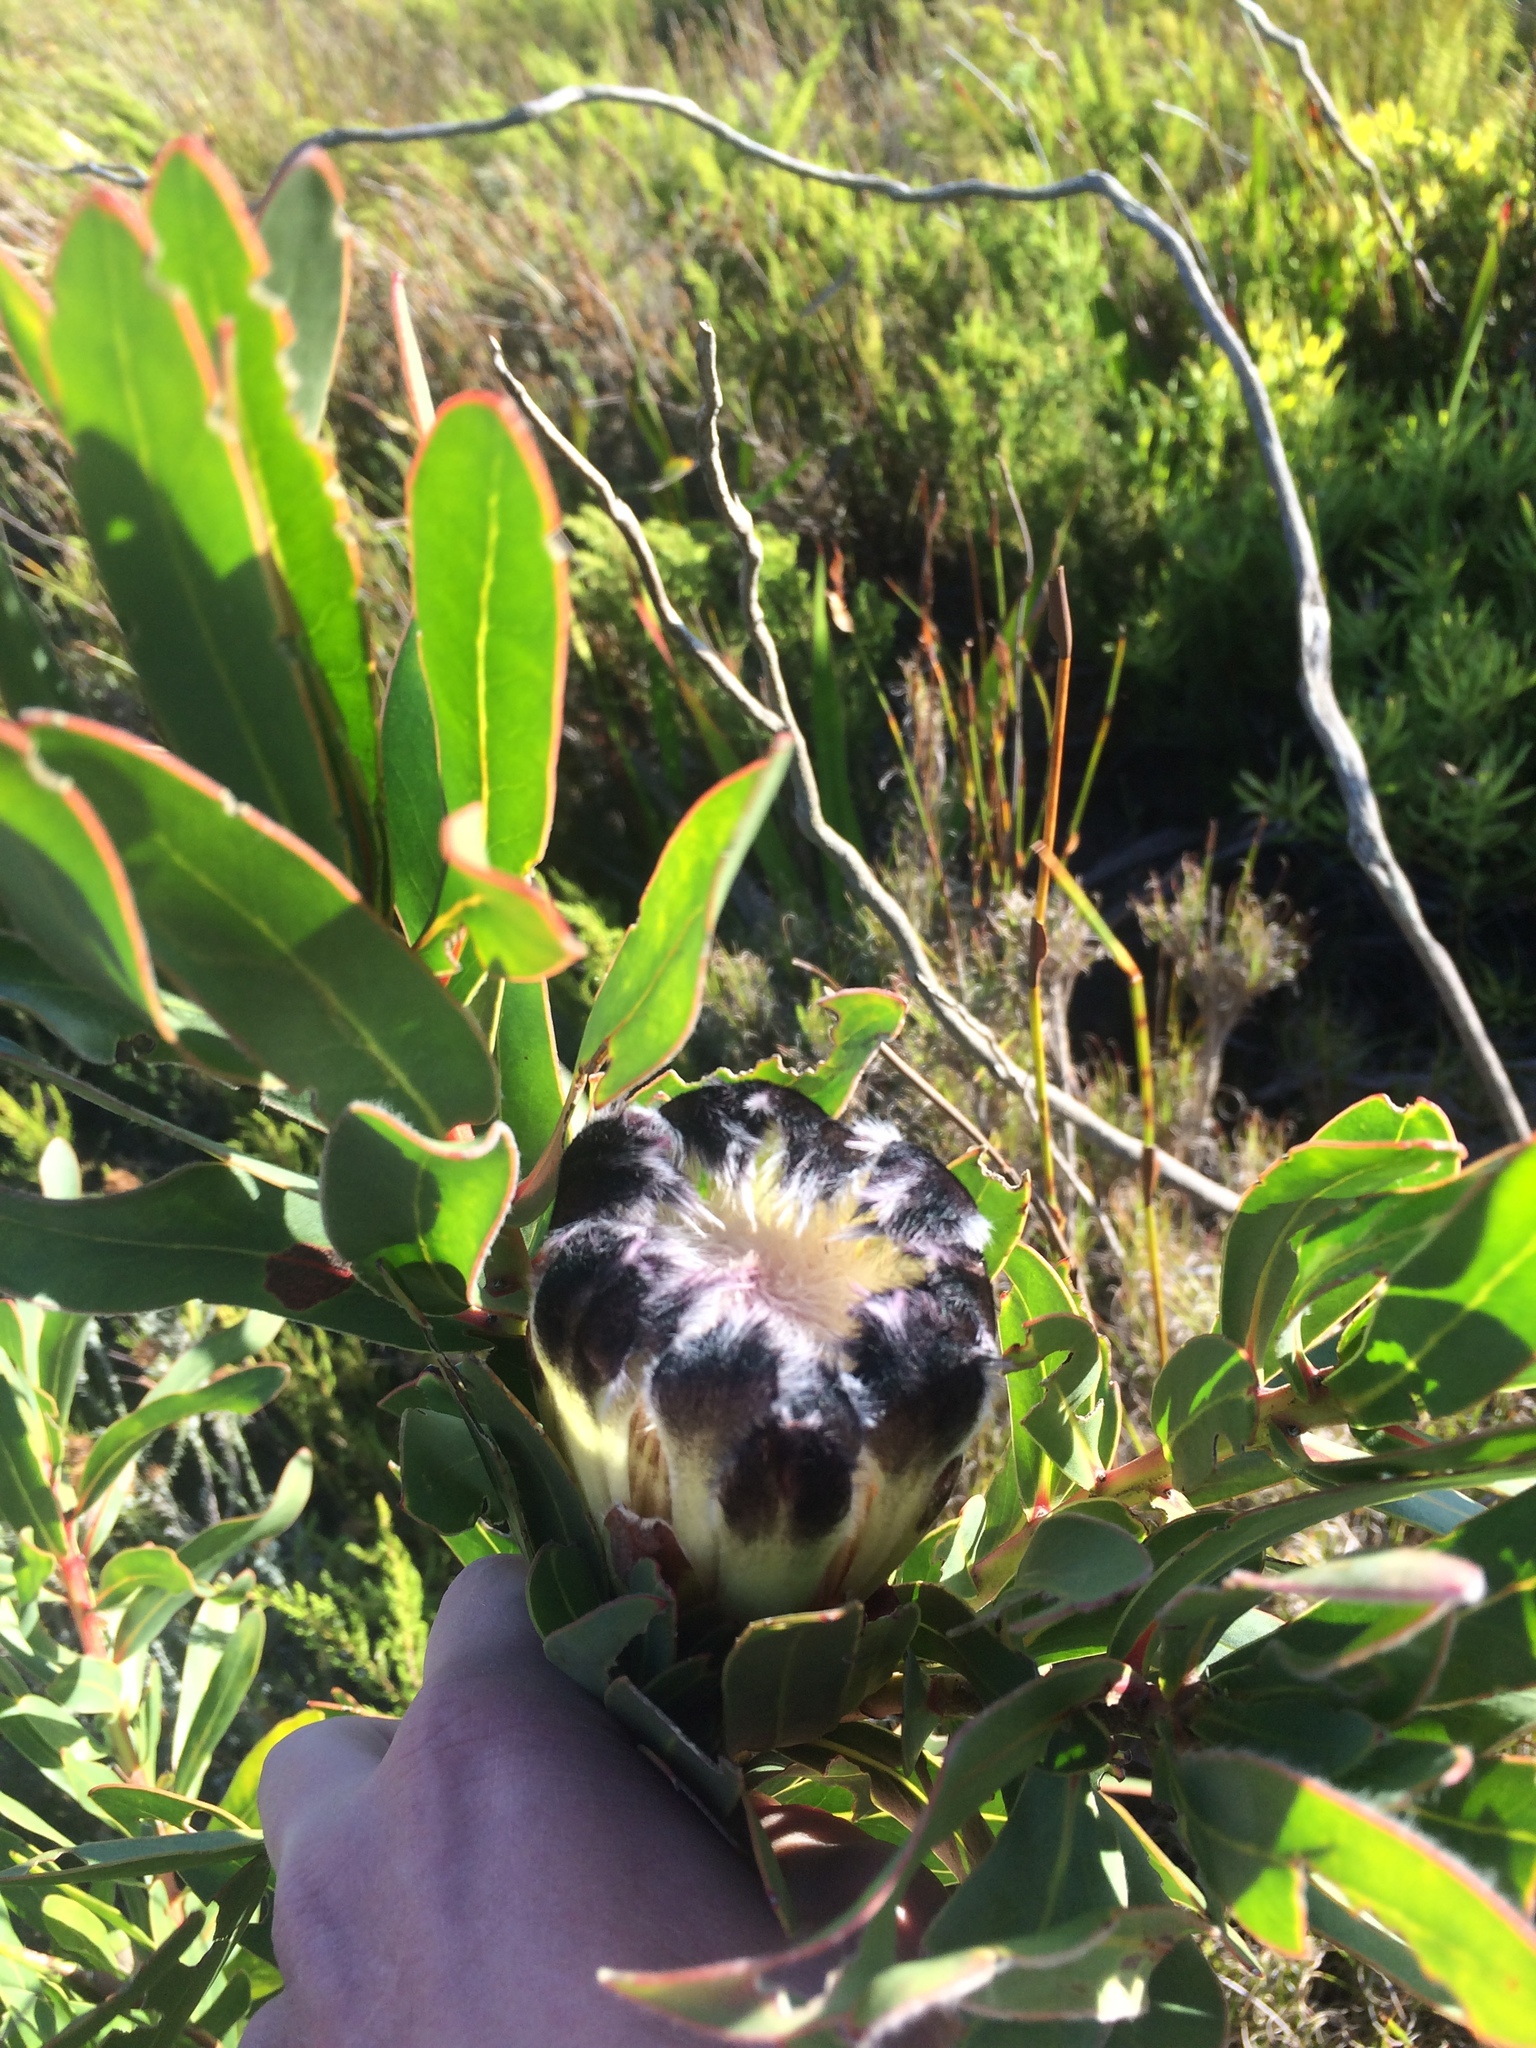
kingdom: Plantae
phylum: Tracheophyta
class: Magnoliopsida
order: Proteales
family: Proteaceae
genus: Protea
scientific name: Protea lepidocarpodendron
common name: Black-bearded protea
